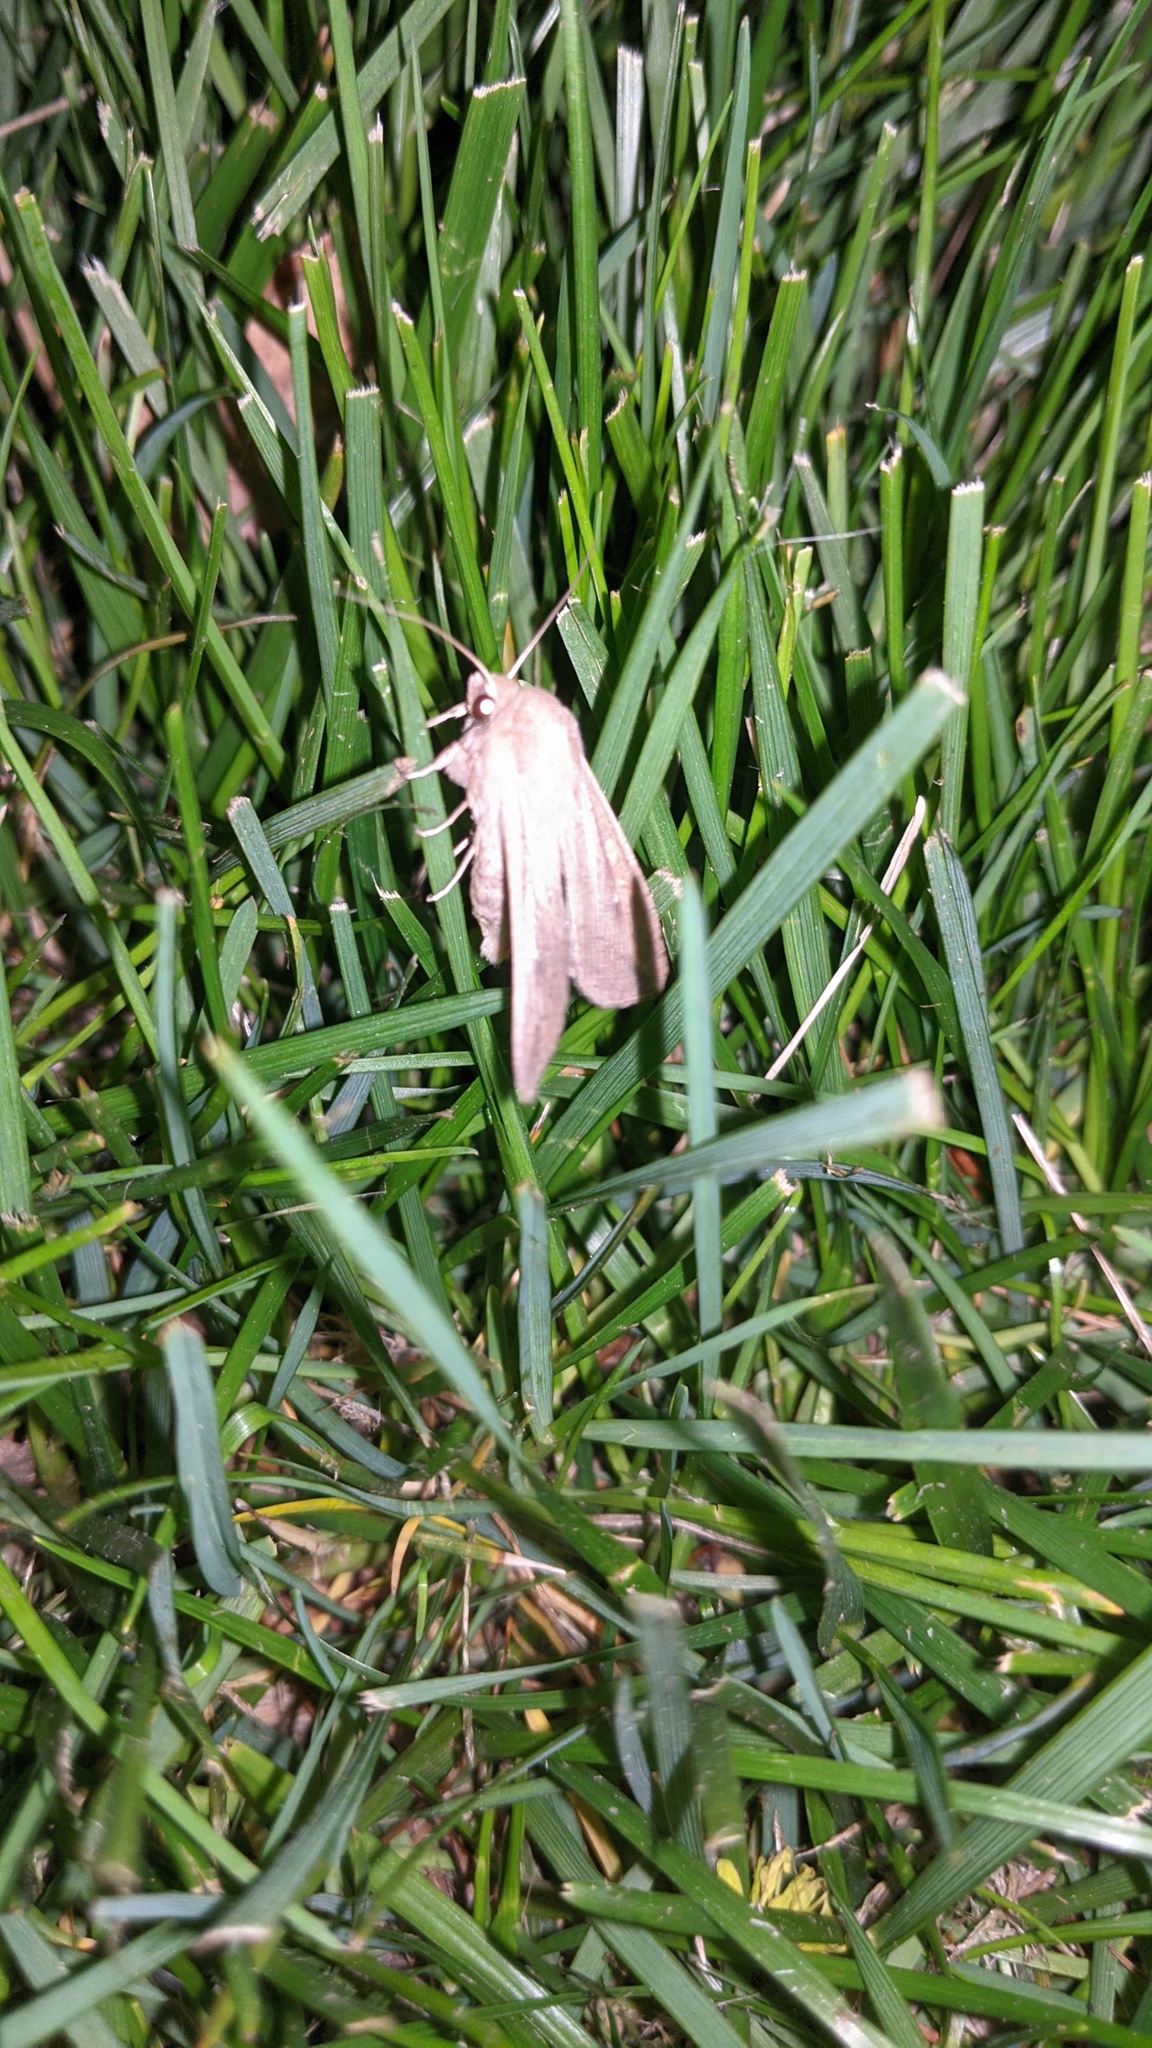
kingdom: Animalia
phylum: Arthropoda
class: Insecta
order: Lepidoptera
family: Noctuidae
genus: Mythimna
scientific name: Mythimna unipuncta
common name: White-speck
